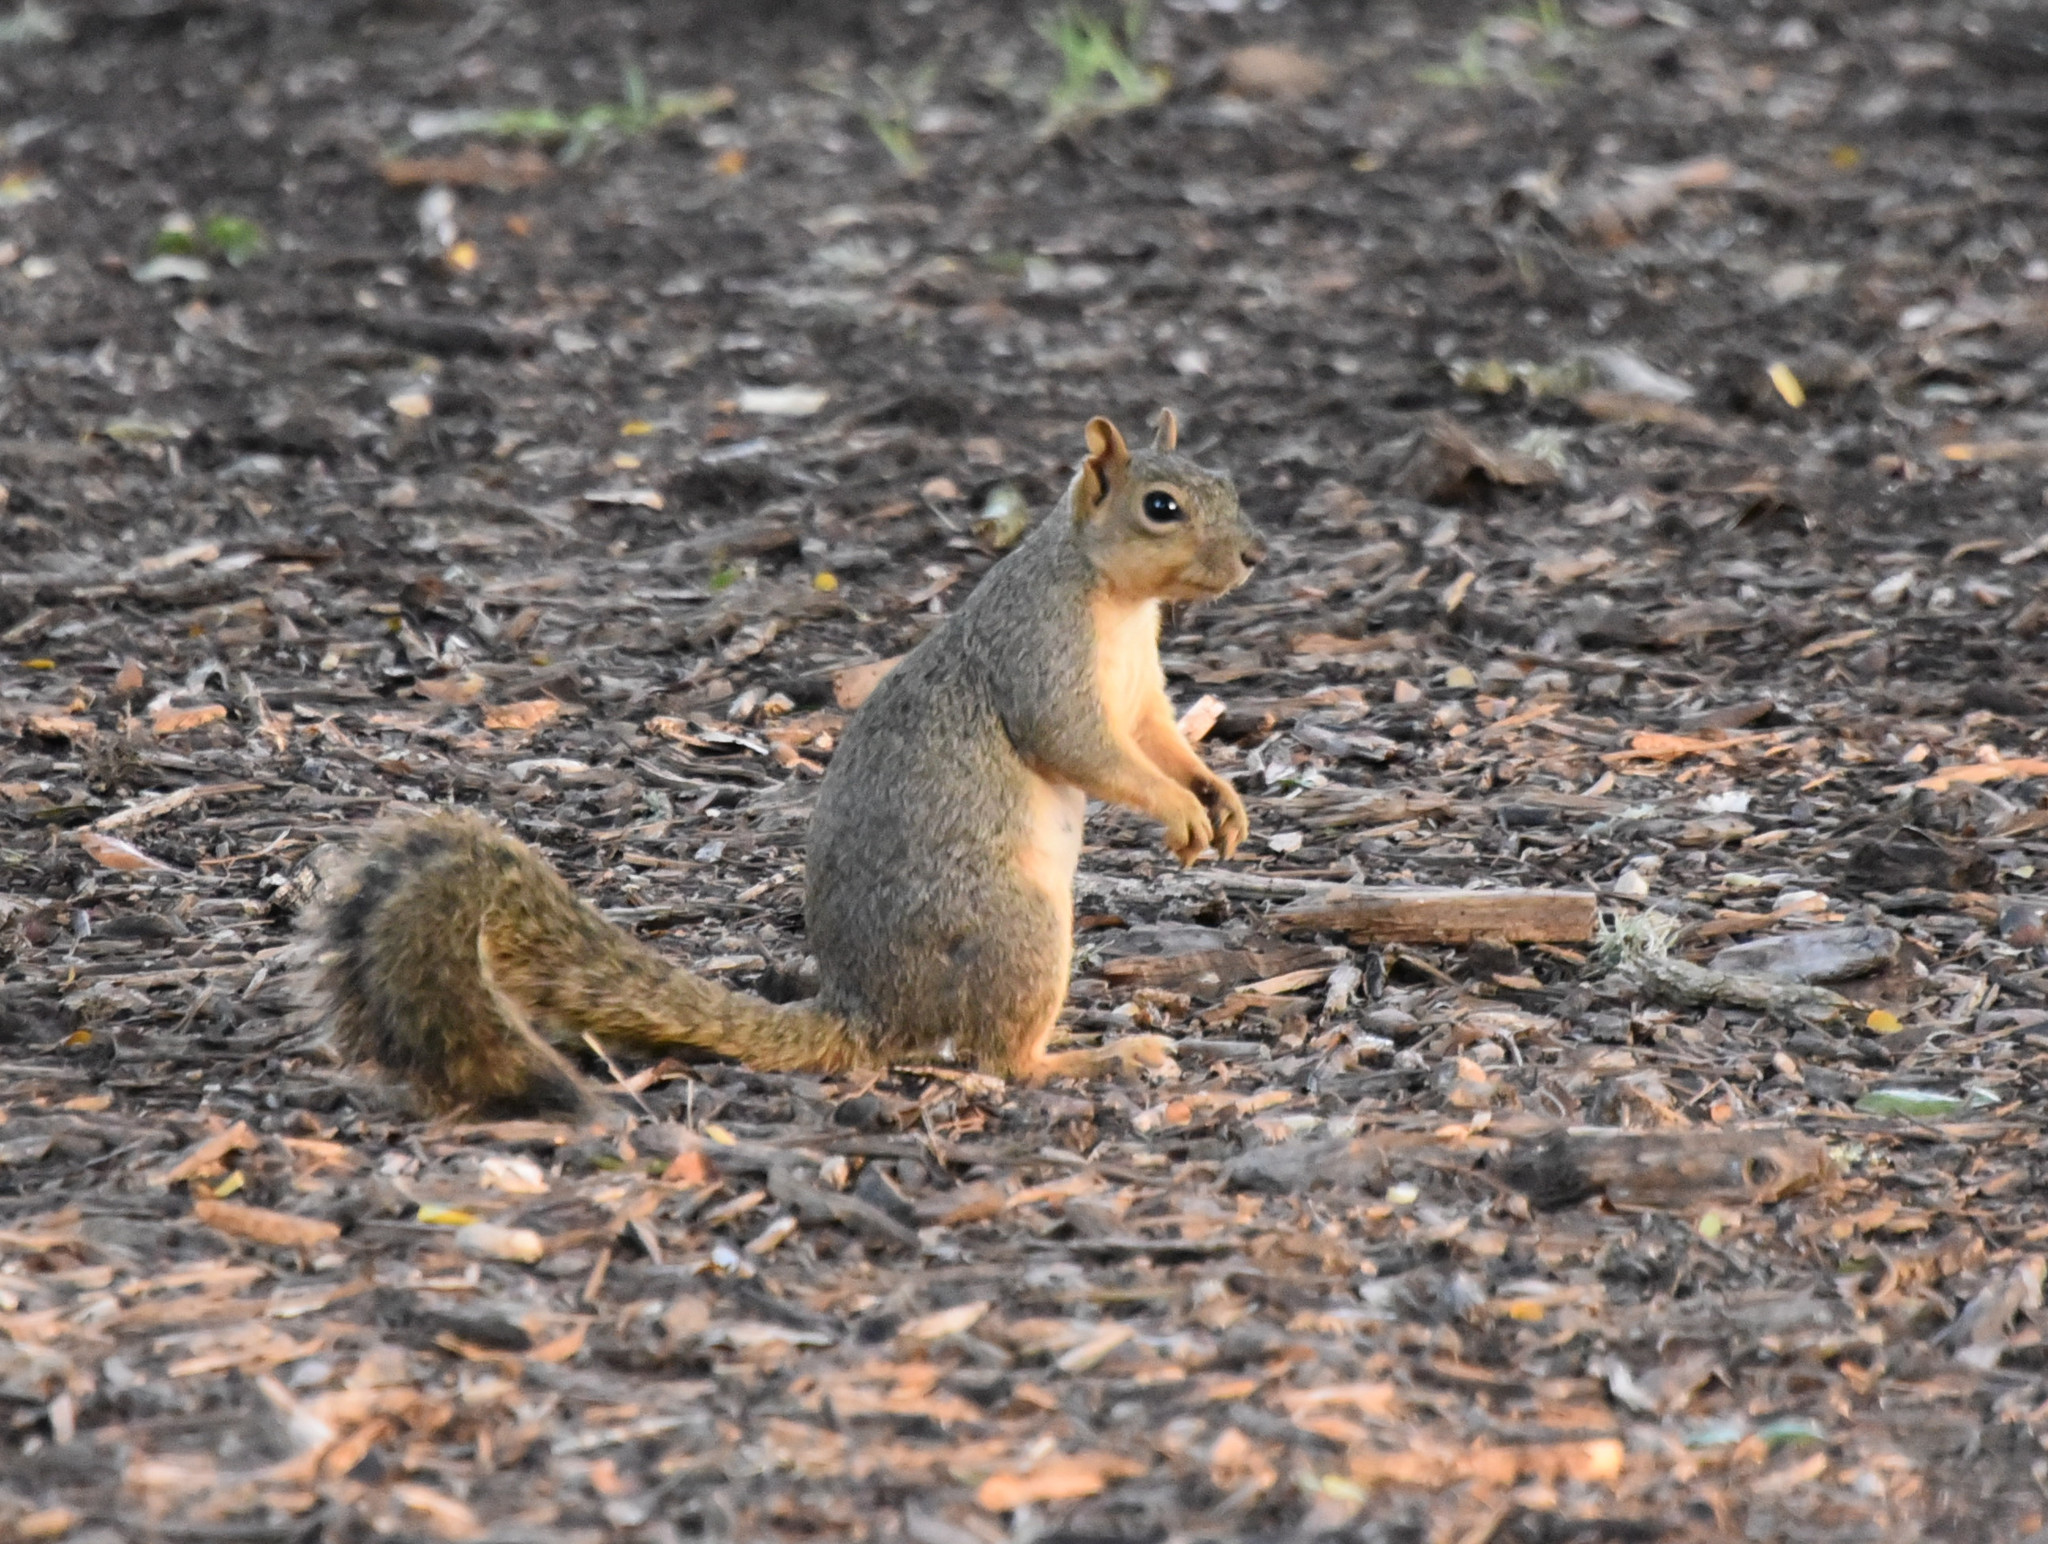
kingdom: Animalia
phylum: Chordata
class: Mammalia
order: Rodentia
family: Sciuridae
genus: Sciurus
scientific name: Sciurus niger
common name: Fox squirrel
